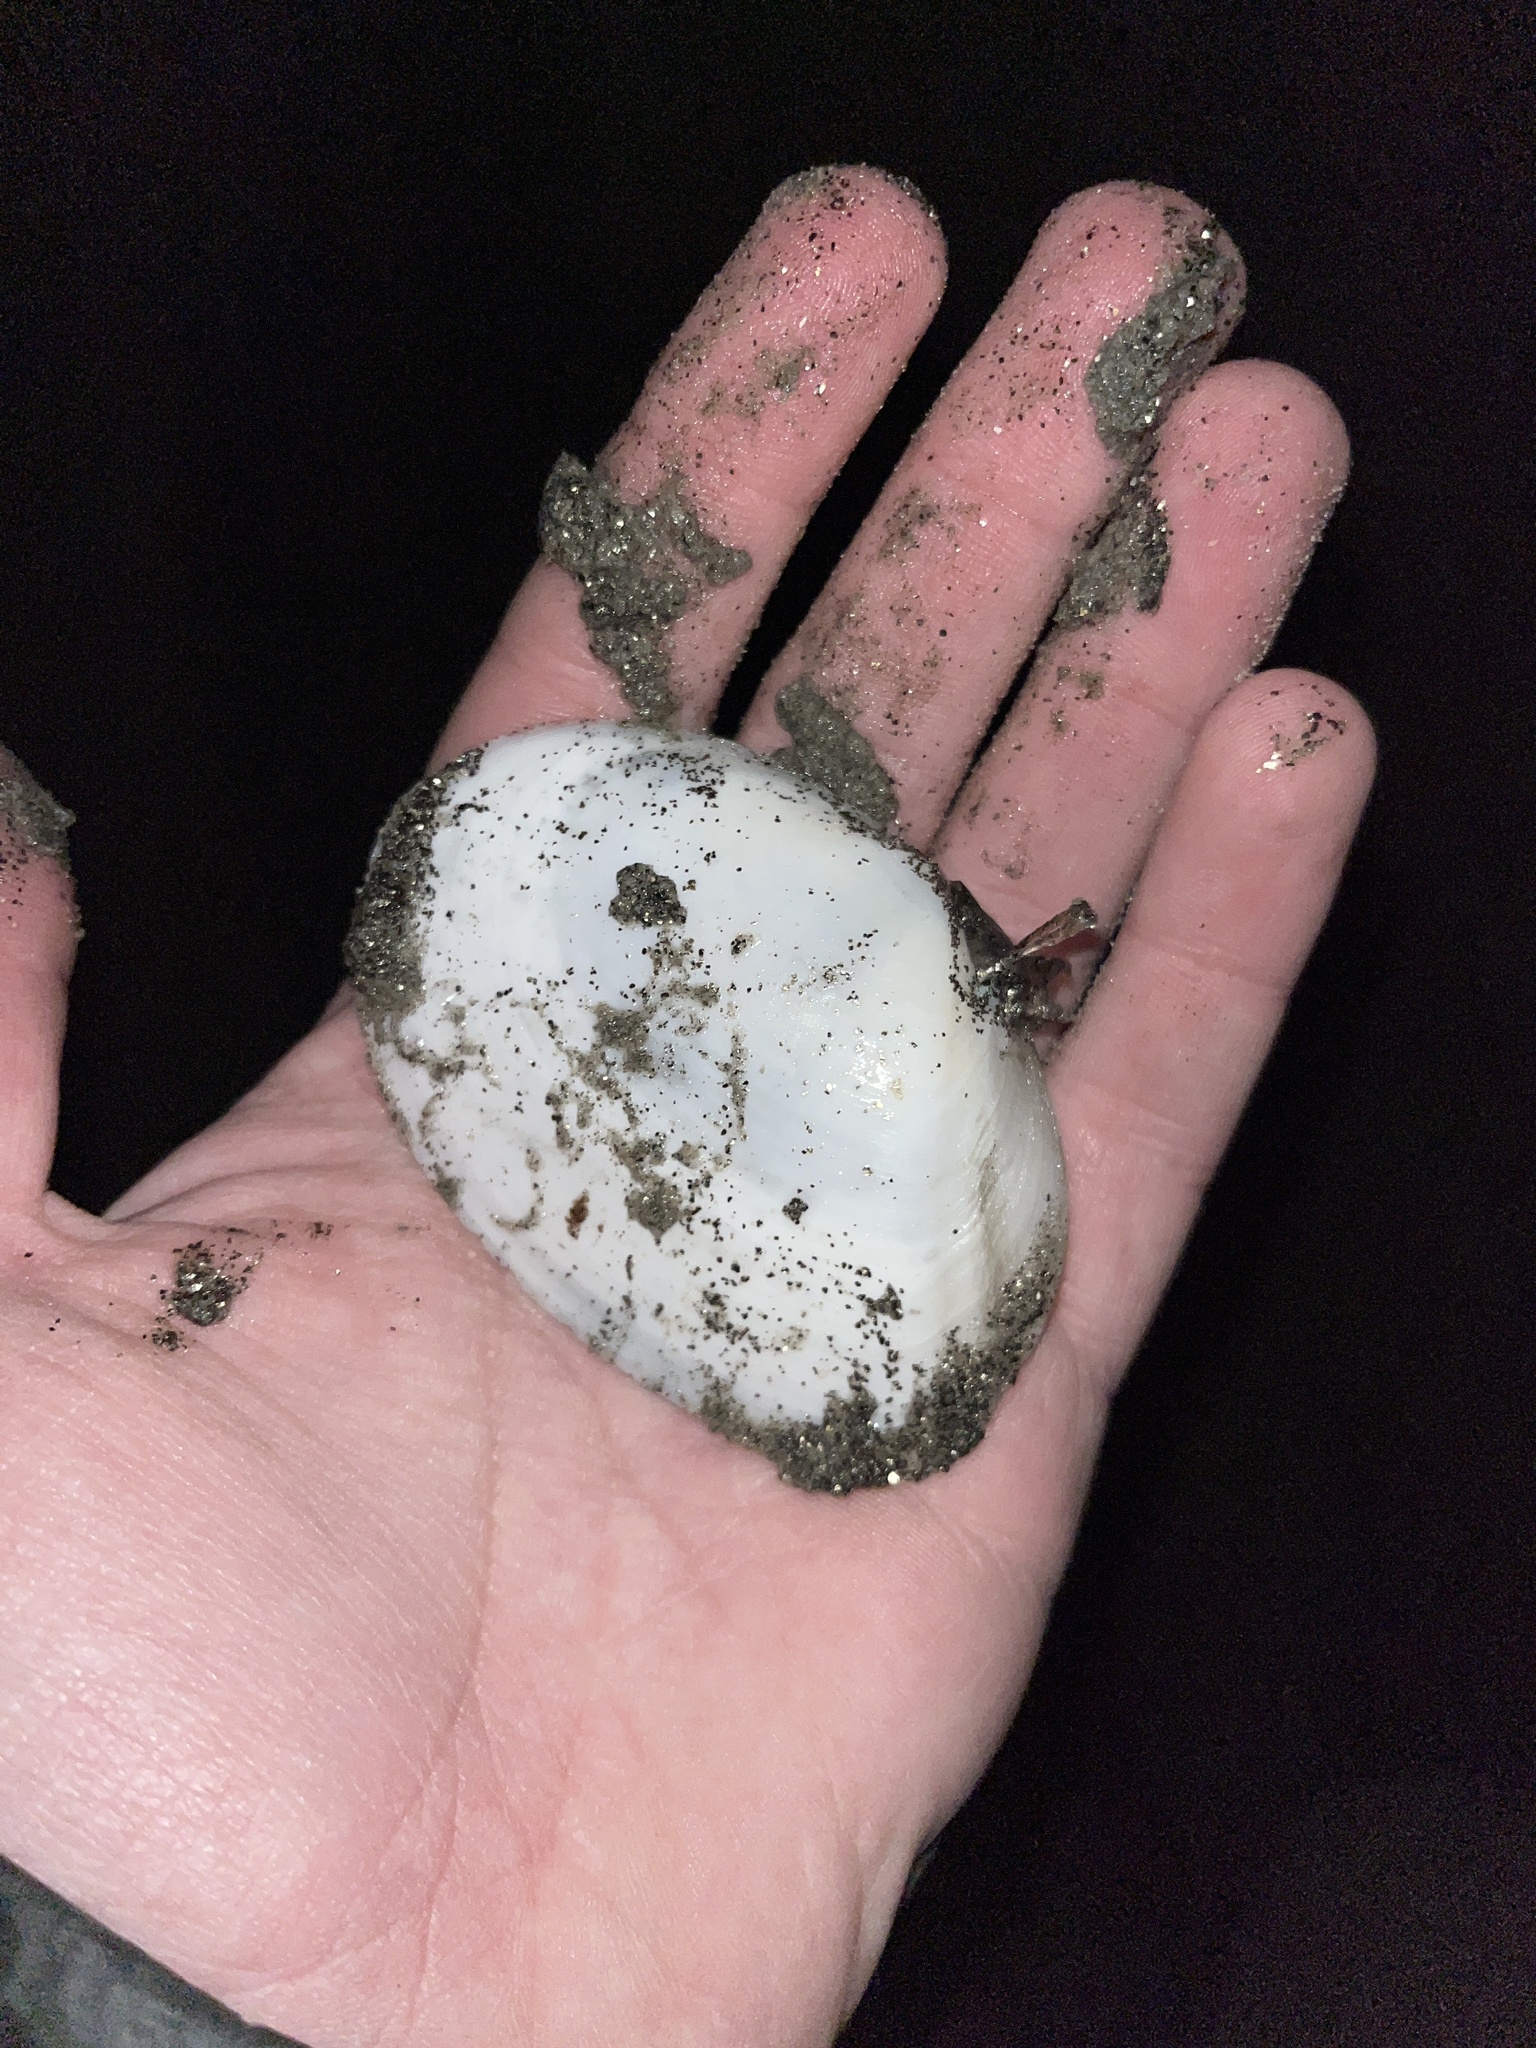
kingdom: Animalia
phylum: Mollusca
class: Bivalvia
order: Cardiida
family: Tellinidae
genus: Rexithaerus
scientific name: Rexithaerus secta
